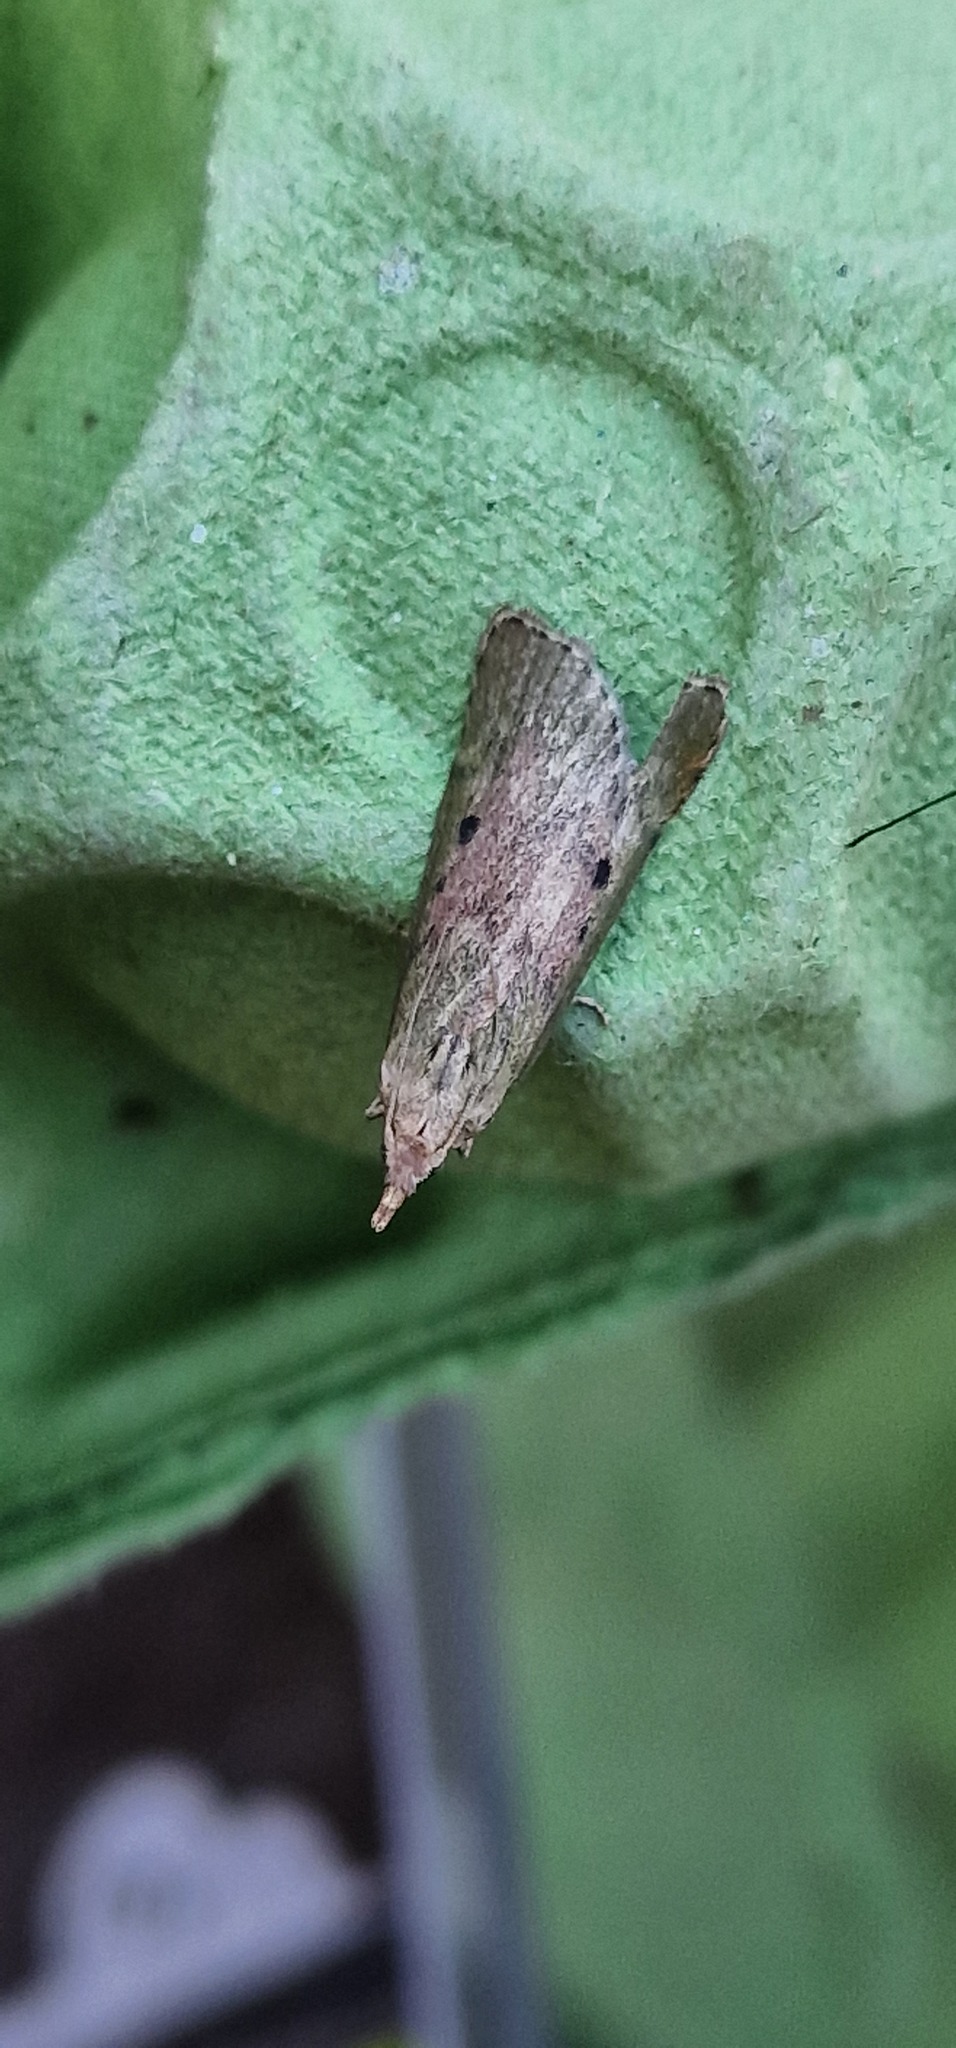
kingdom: Animalia
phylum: Arthropoda
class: Insecta
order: Lepidoptera
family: Pyralidae
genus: Aphomia
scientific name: Aphomia sociella
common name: Bee moth
